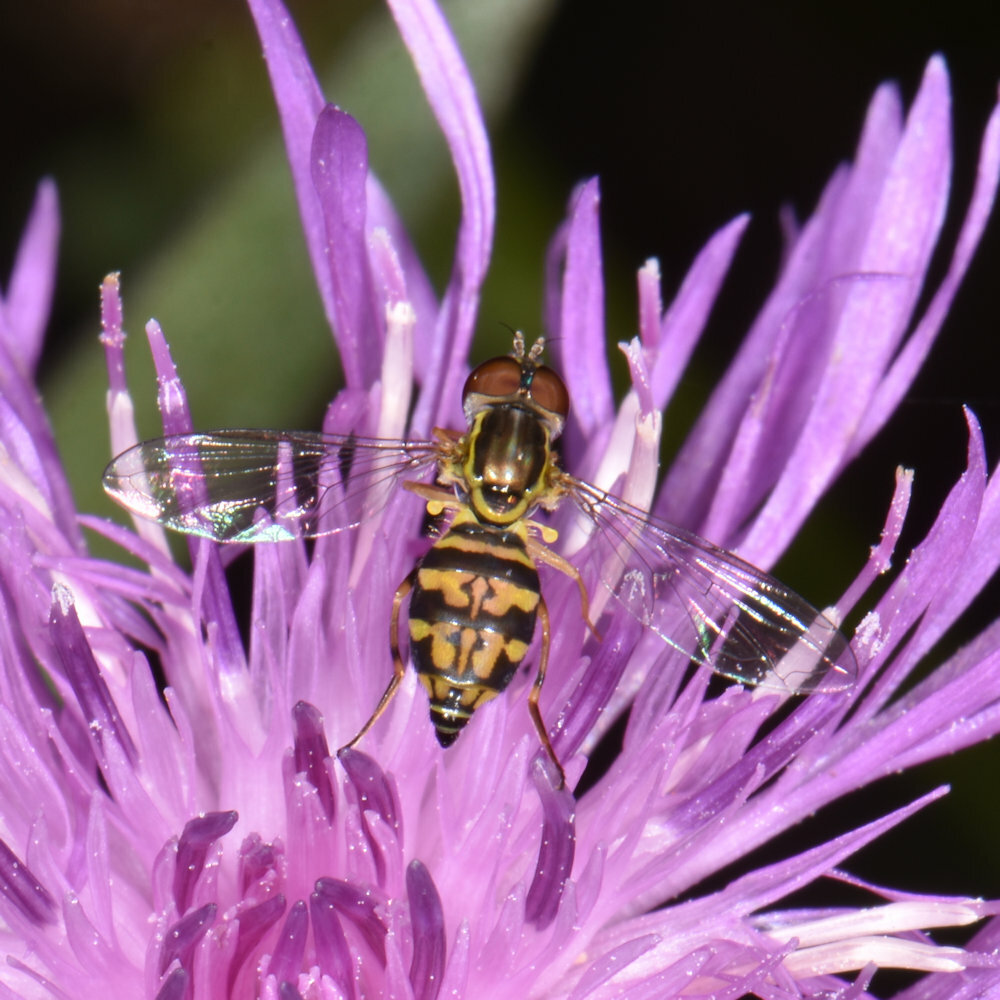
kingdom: Animalia
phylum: Arthropoda
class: Insecta
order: Diptera
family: Syrphidae
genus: Toxomerus
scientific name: Toxomerus geminatus
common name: Eastern calligrapher
